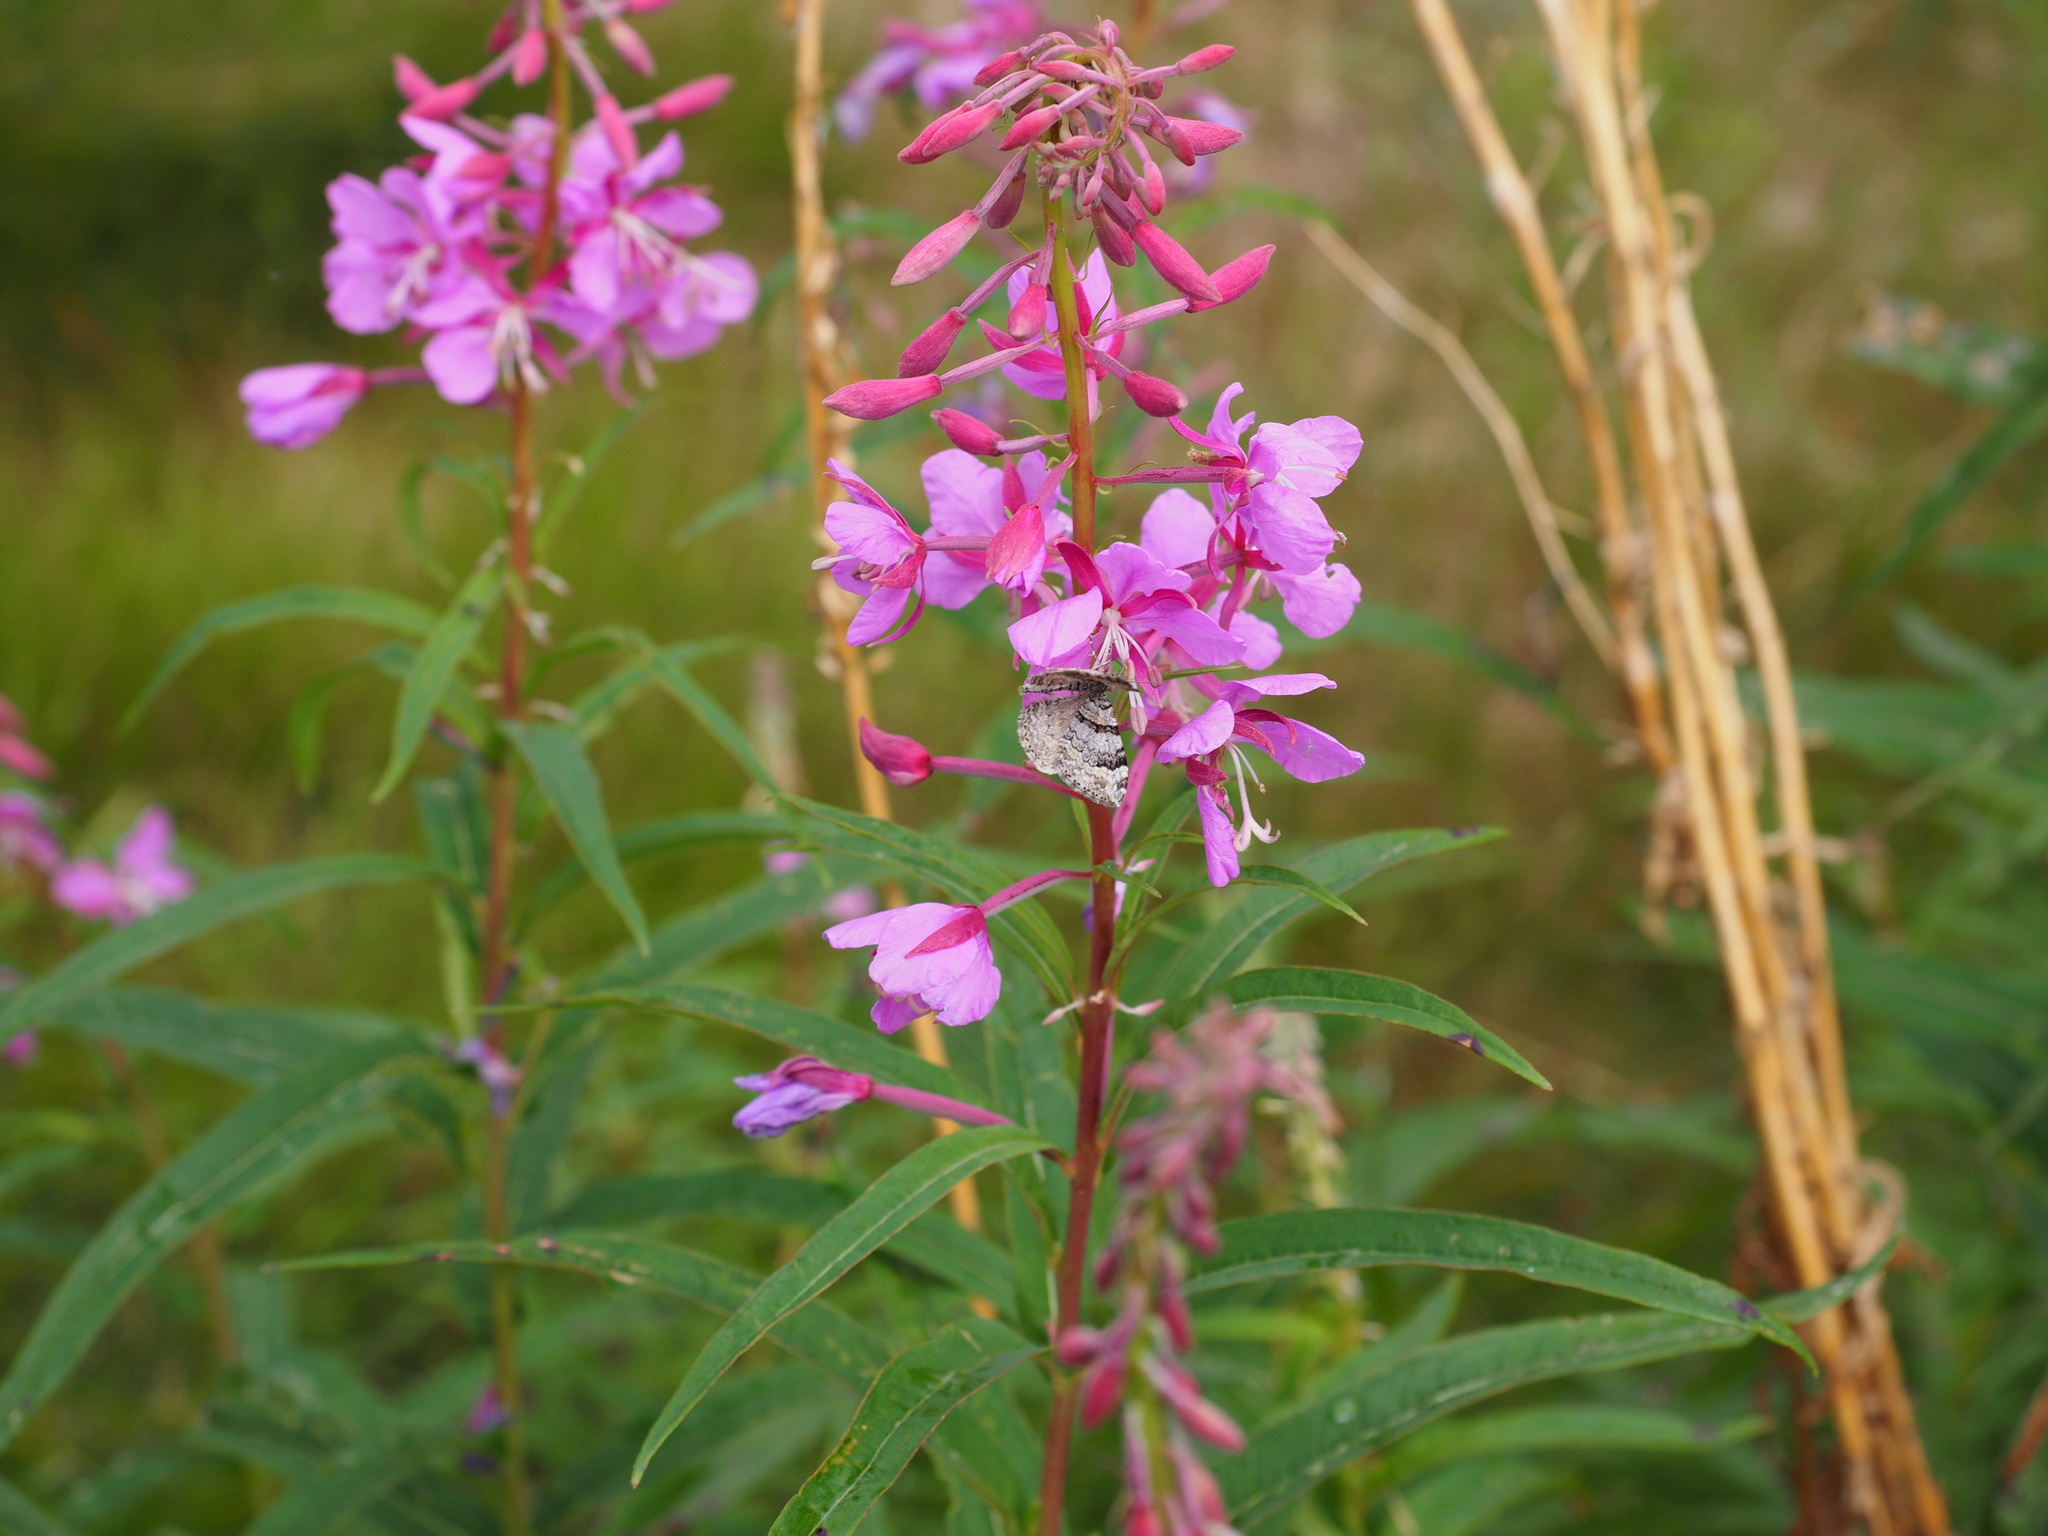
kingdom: Animalia
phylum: Arthropoda
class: Insecta
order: Lepidoptera
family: Geometridae
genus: Xanthorhoe
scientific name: Xanthorhoe abrasaria
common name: Northern carpet
